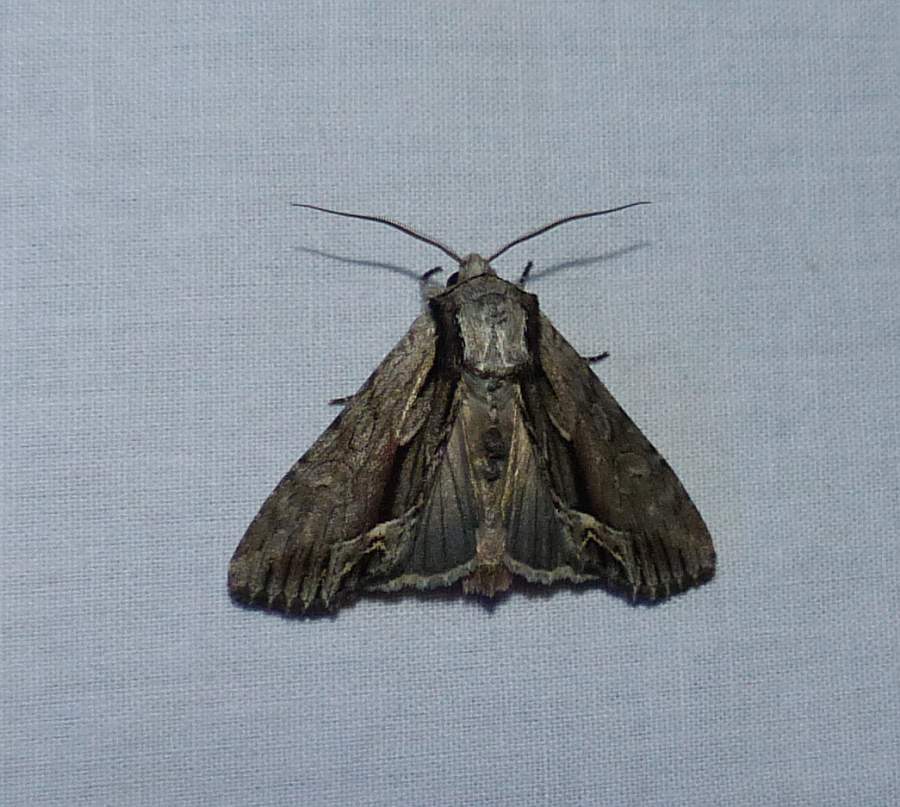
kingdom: Animalia
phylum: Arthropoda
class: Insecta
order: Lepidoptera
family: Noctuidae
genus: Hyppa
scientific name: Hyppa xylinoides
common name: Common hyppa moth
